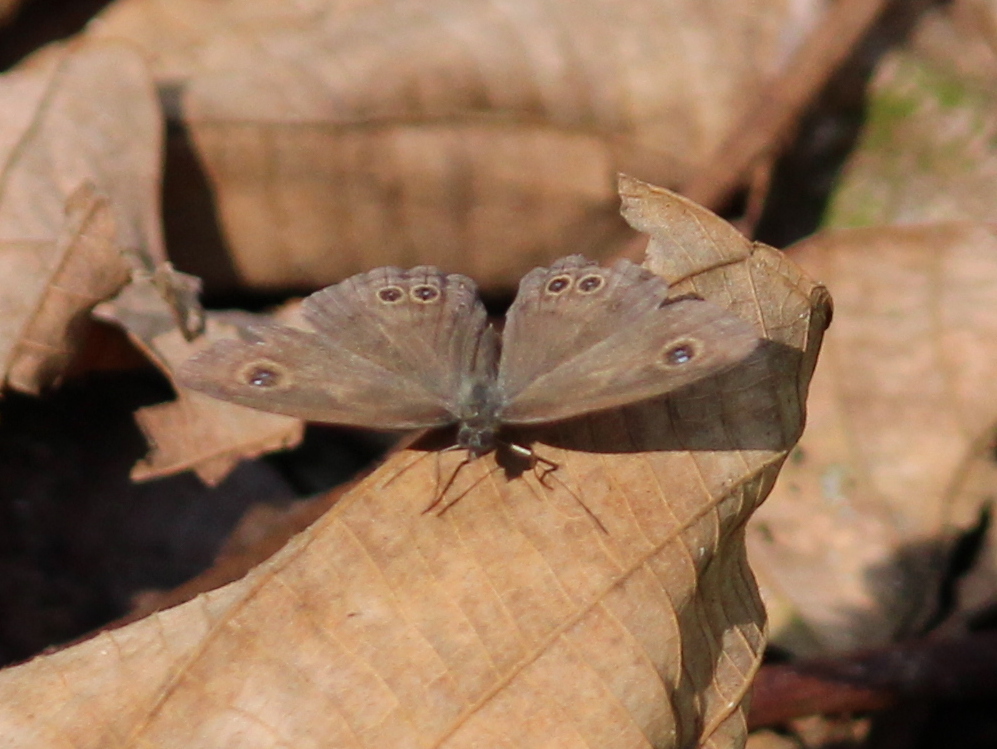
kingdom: Animalia
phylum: Arthropoda
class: Insecta
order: Lepidoptera
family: Nymphalidae
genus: Ypthima
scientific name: Ypthima baldus
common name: Common five-ring
